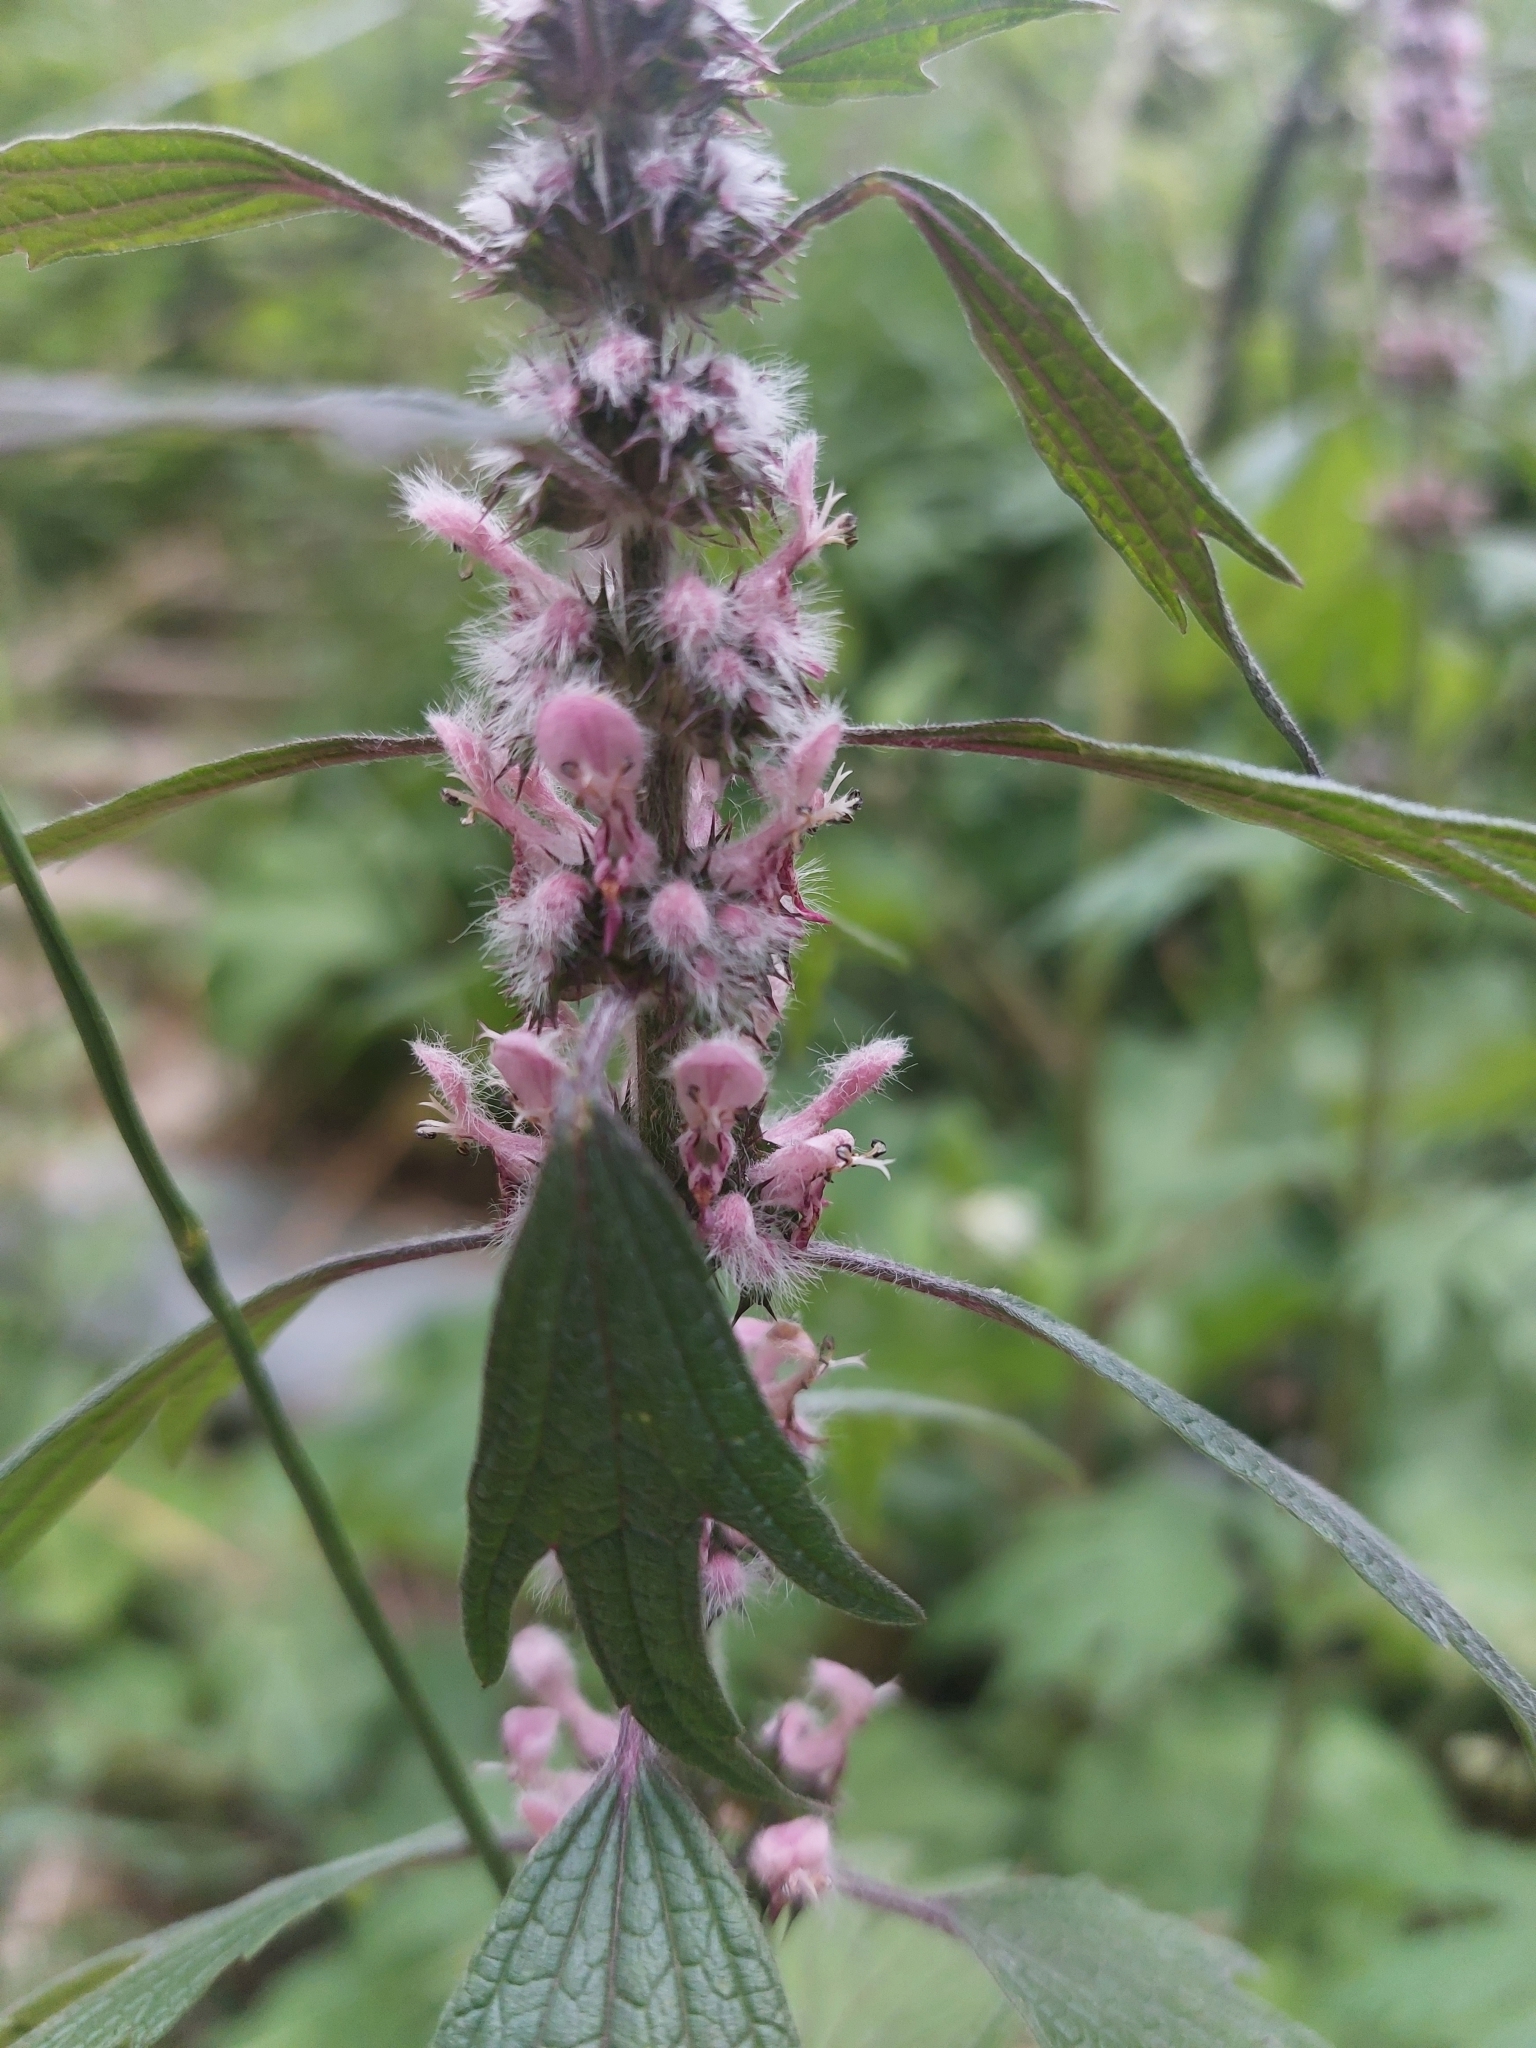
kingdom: Plantae
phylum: Tracheophyta
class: Magnoliopsida
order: Lamiales
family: Lamiaceae
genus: Leonurus
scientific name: Leonurus quinquelobatus
